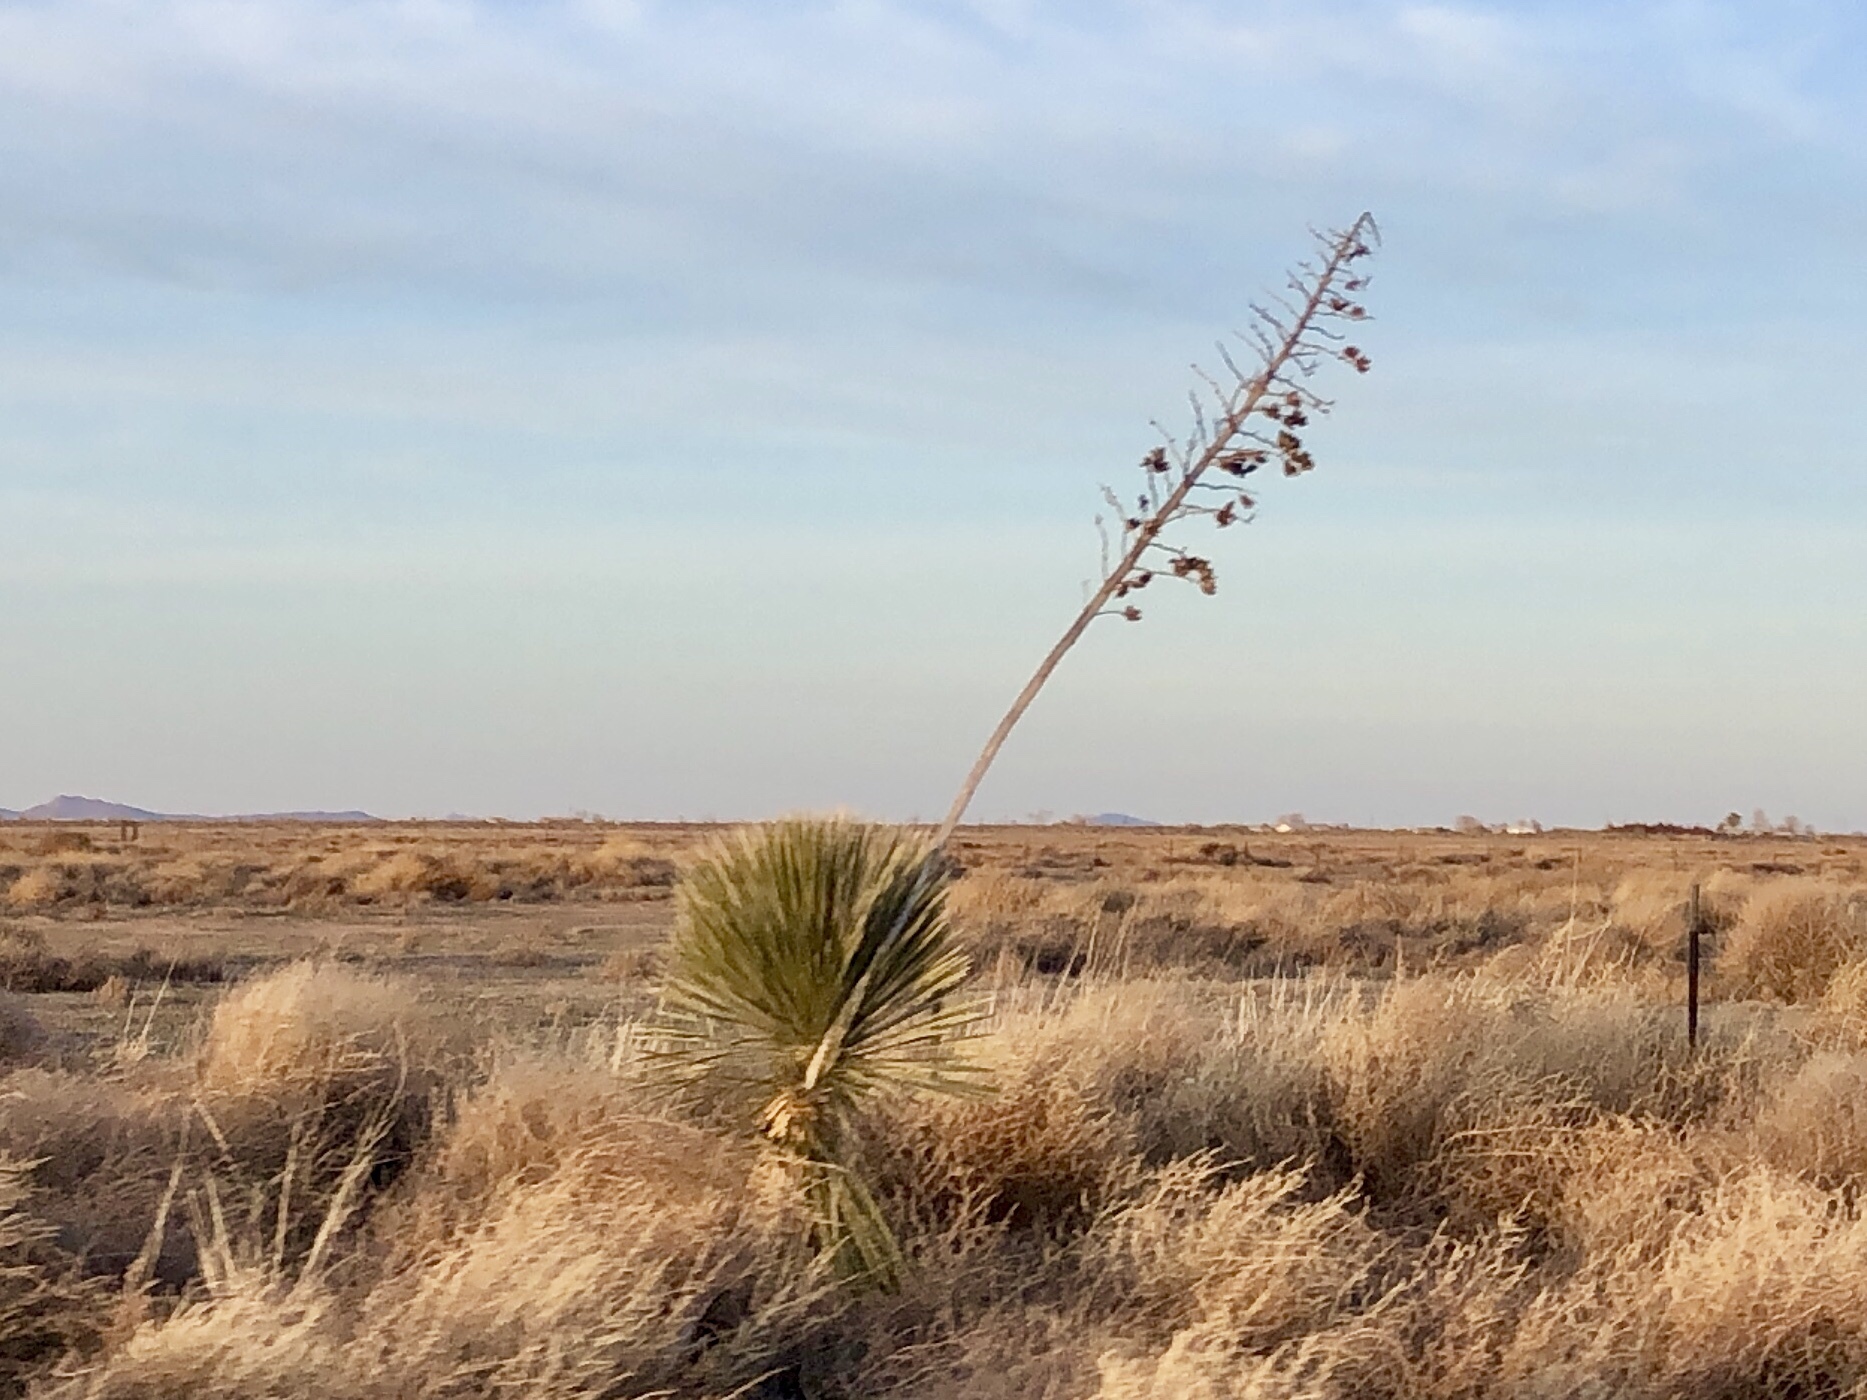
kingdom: Plantae
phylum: Tracheophyta
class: Liliopsida
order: Asparagales
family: Asparagaceae
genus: Yucca
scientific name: Yucca elata
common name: Palmella
